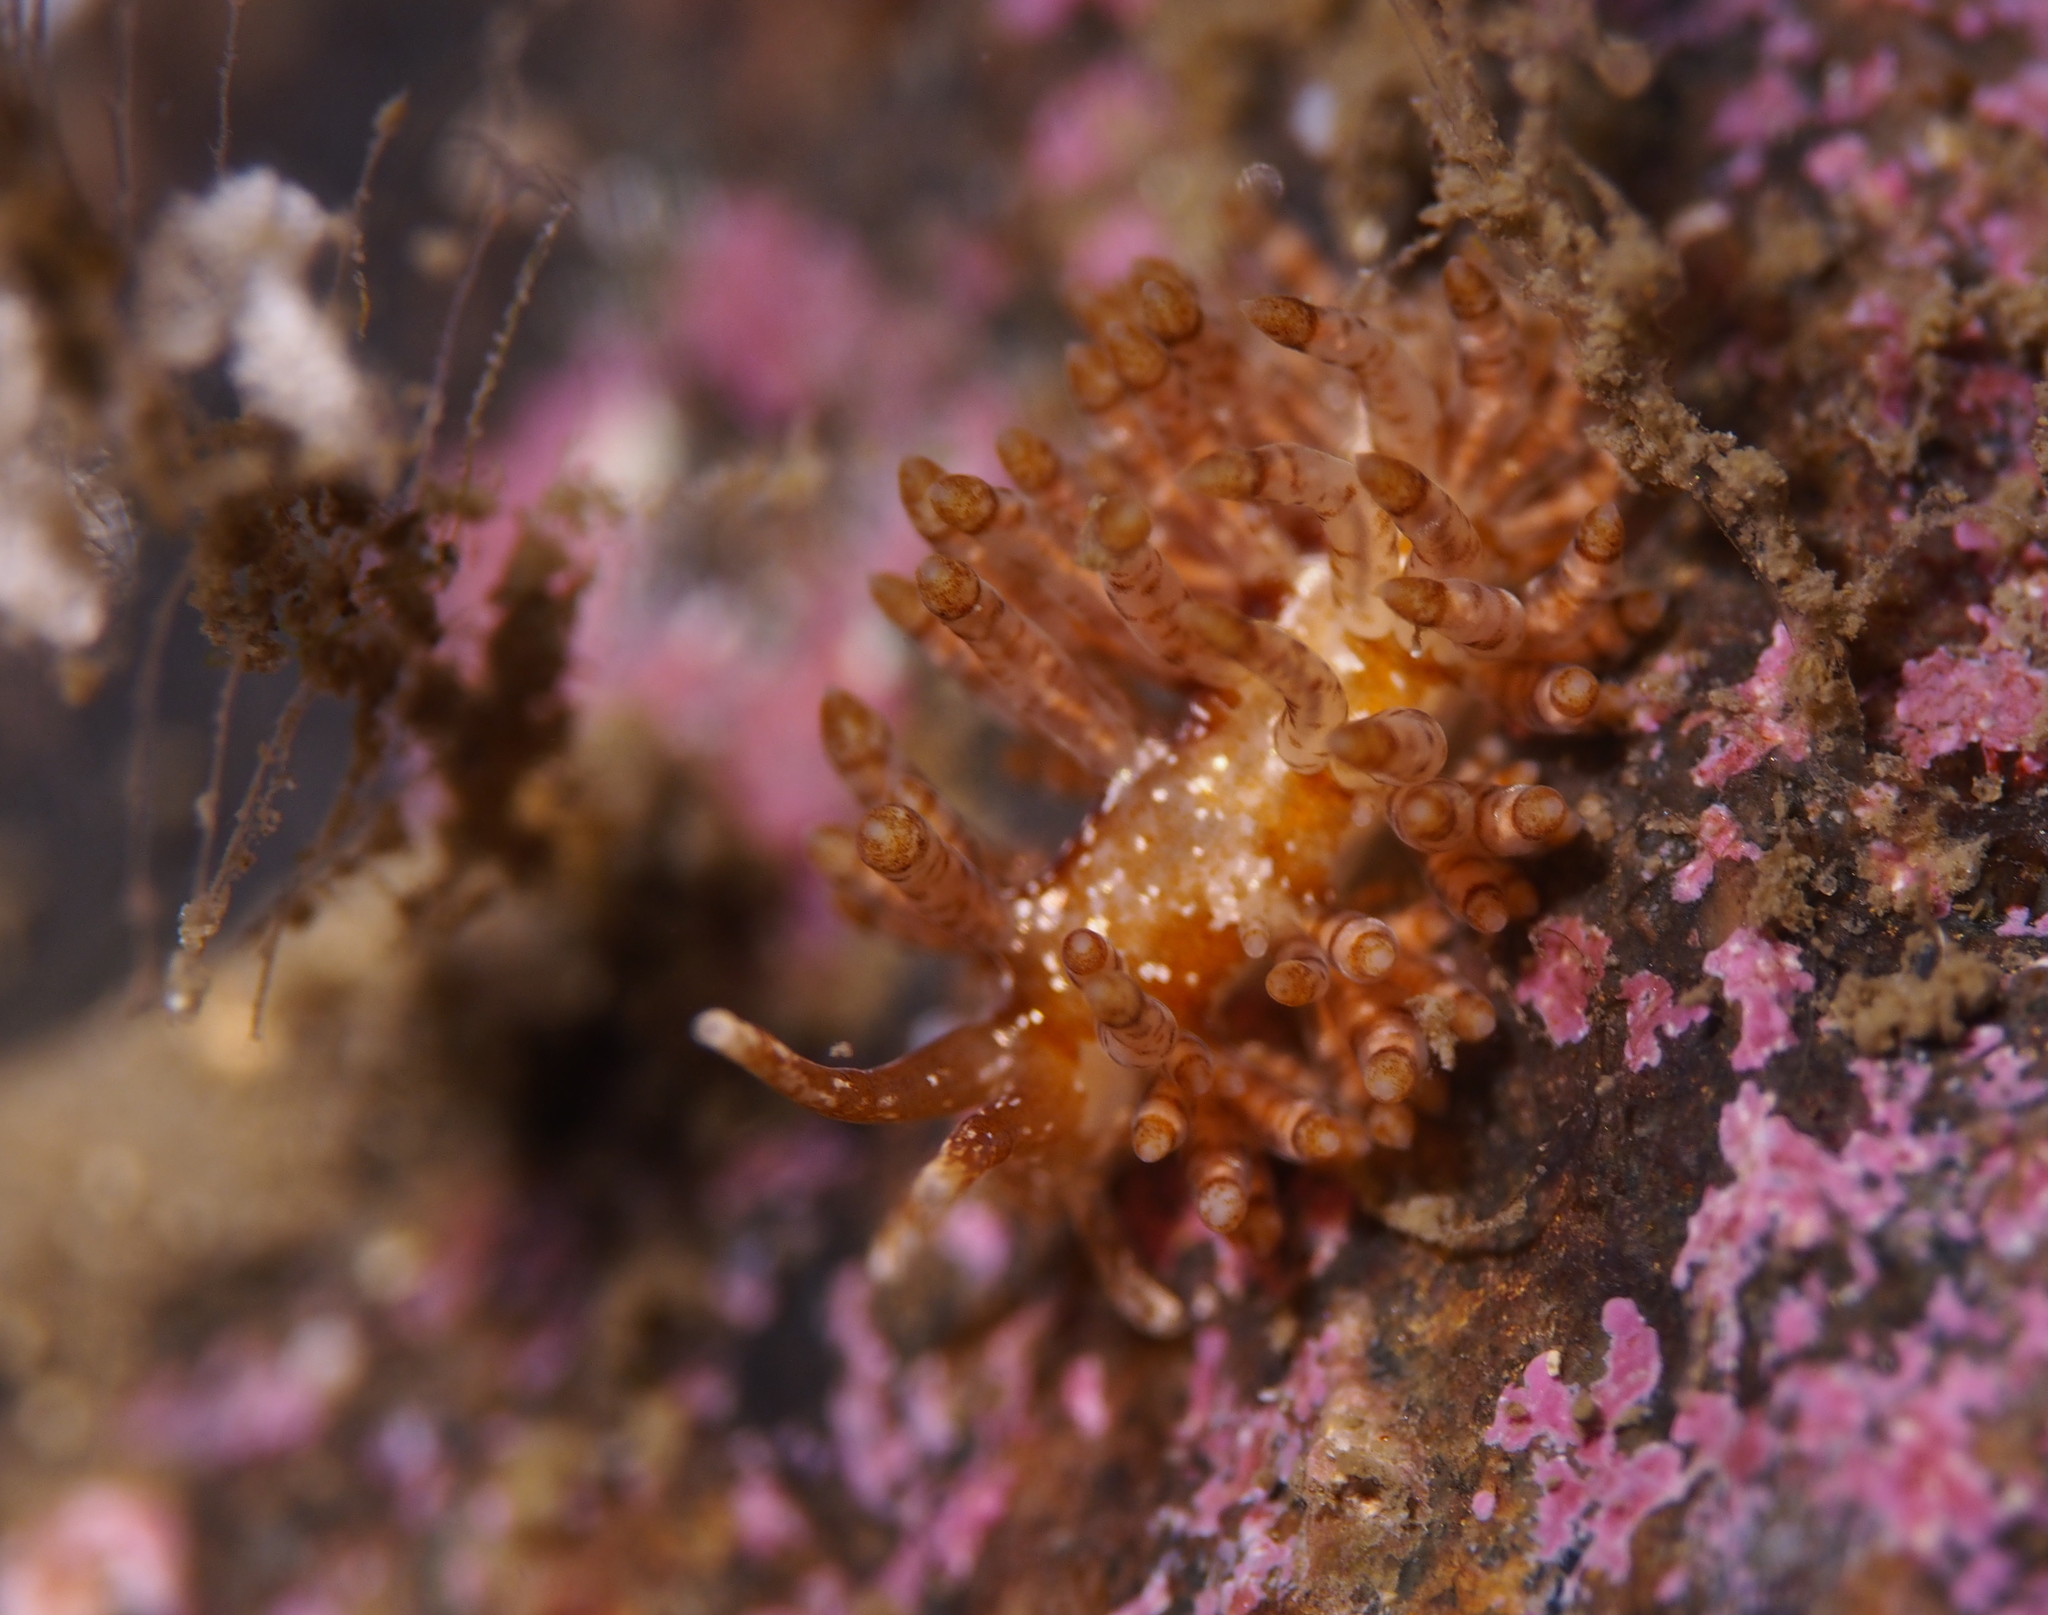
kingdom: Animalia
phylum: Mollusca
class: Gastropoda
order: Nudibranchia
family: Eubranchidae
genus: Eubranchus
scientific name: Eubranchus vittatus
